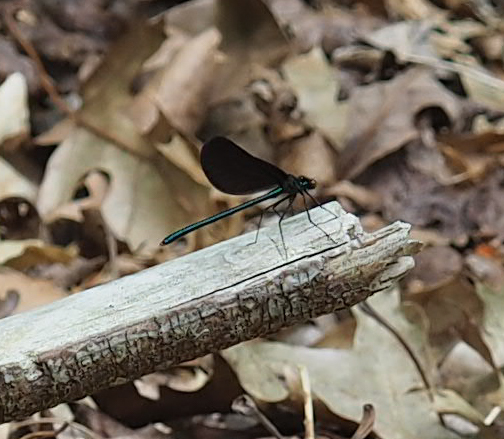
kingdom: Animalia
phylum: Arthropoda
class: Insecta
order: Odonata
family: Calopterygidae
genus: Calopteryx
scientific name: Calopteryx maculata
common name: Ebony jewelwing
